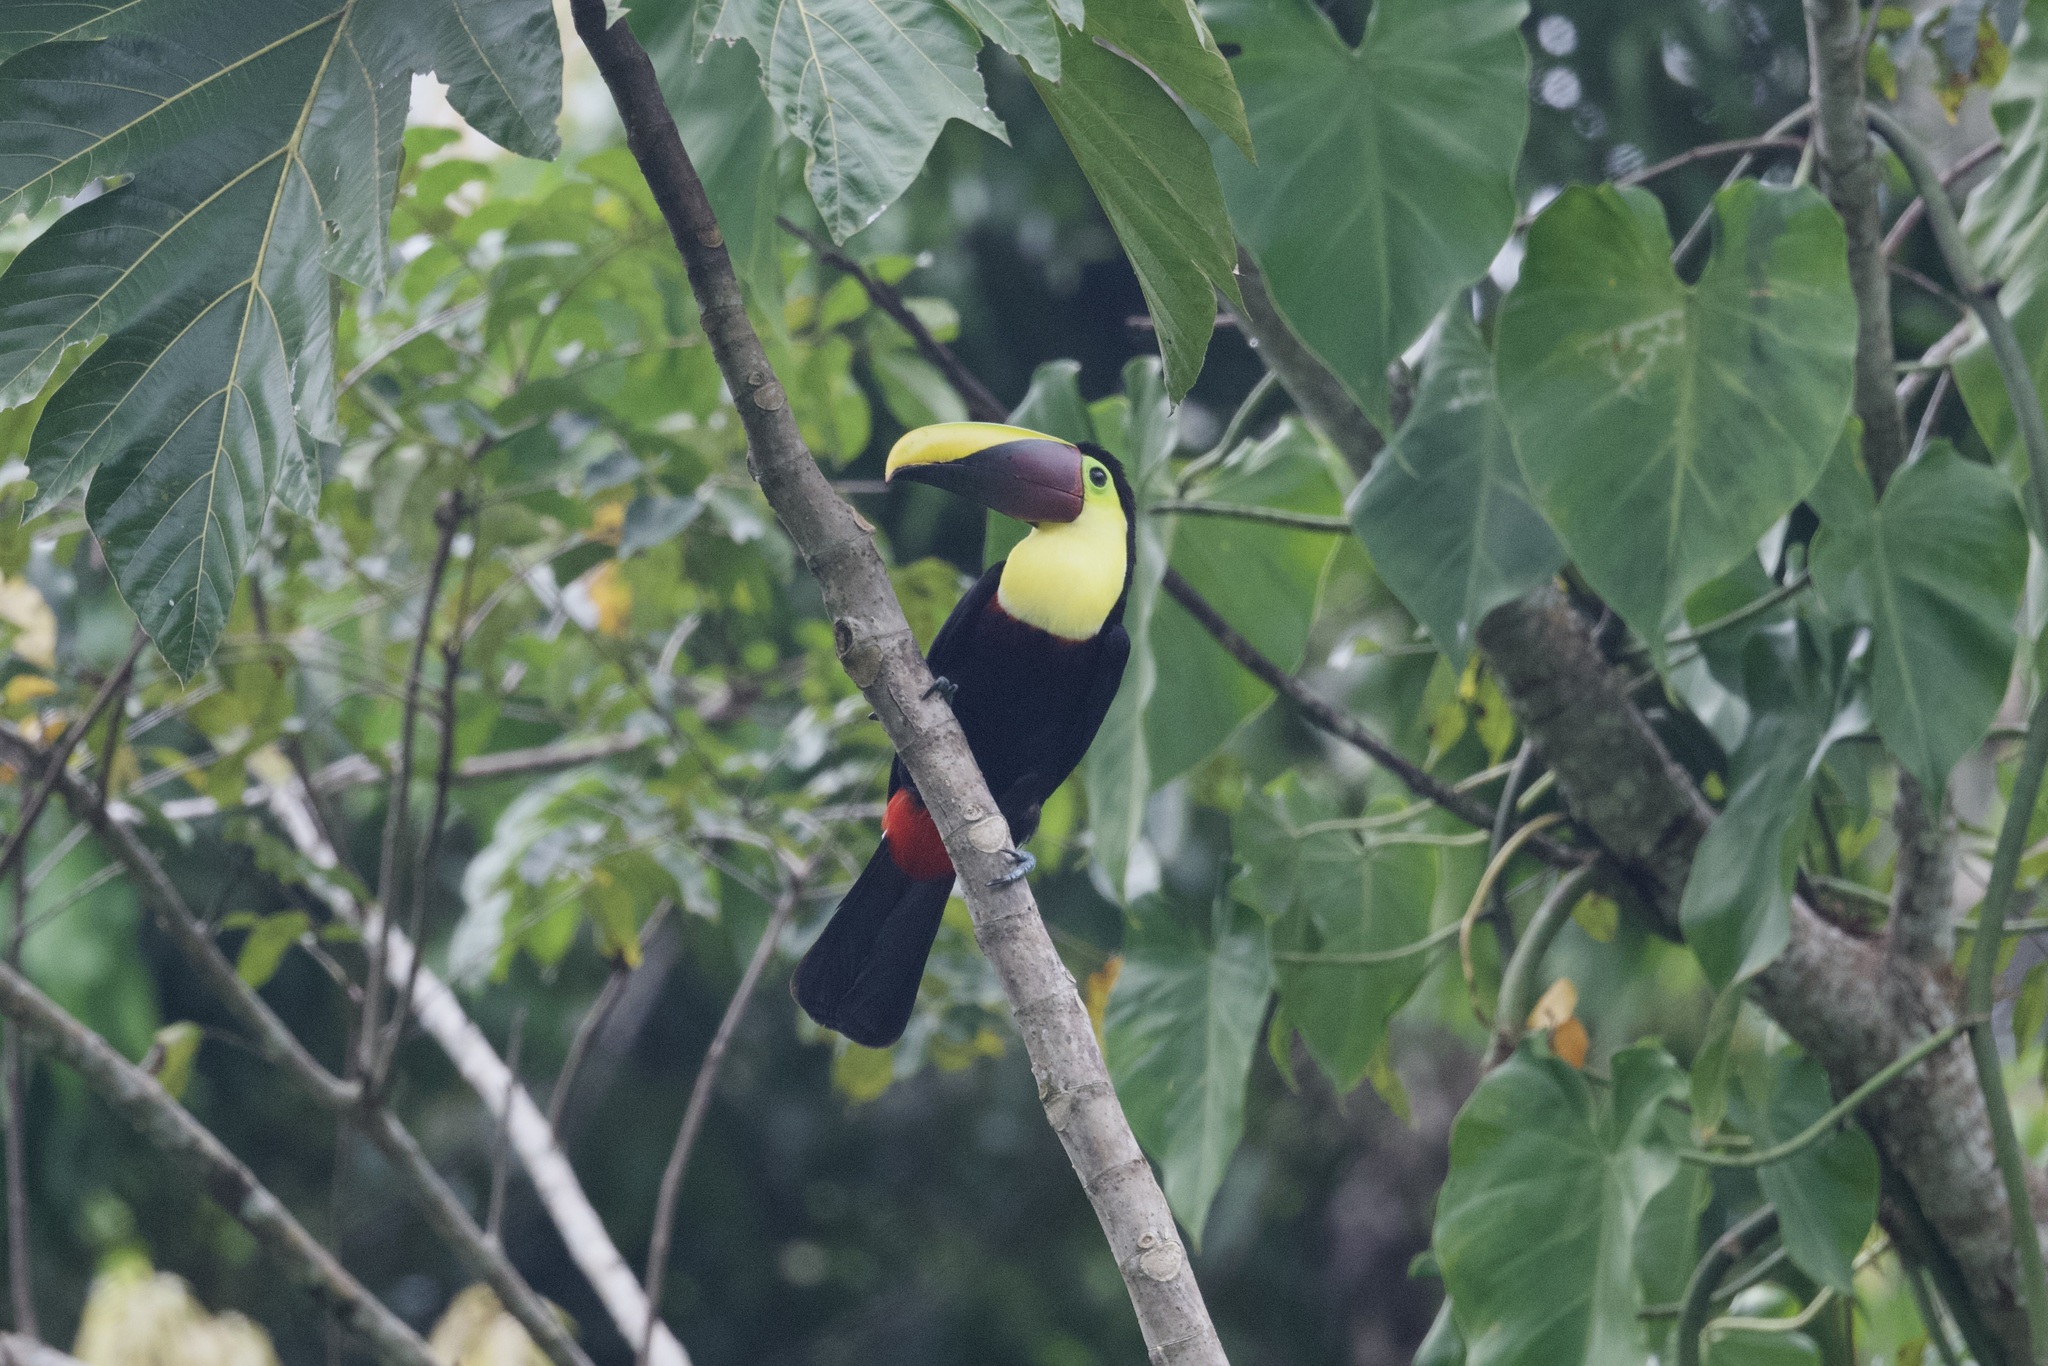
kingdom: Animalia
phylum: Chordata
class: Aves
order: Piciformes
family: Ramphastidae
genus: Ramphastos
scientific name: Ramphastos ambiguus
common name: Yellow-throated toucan
